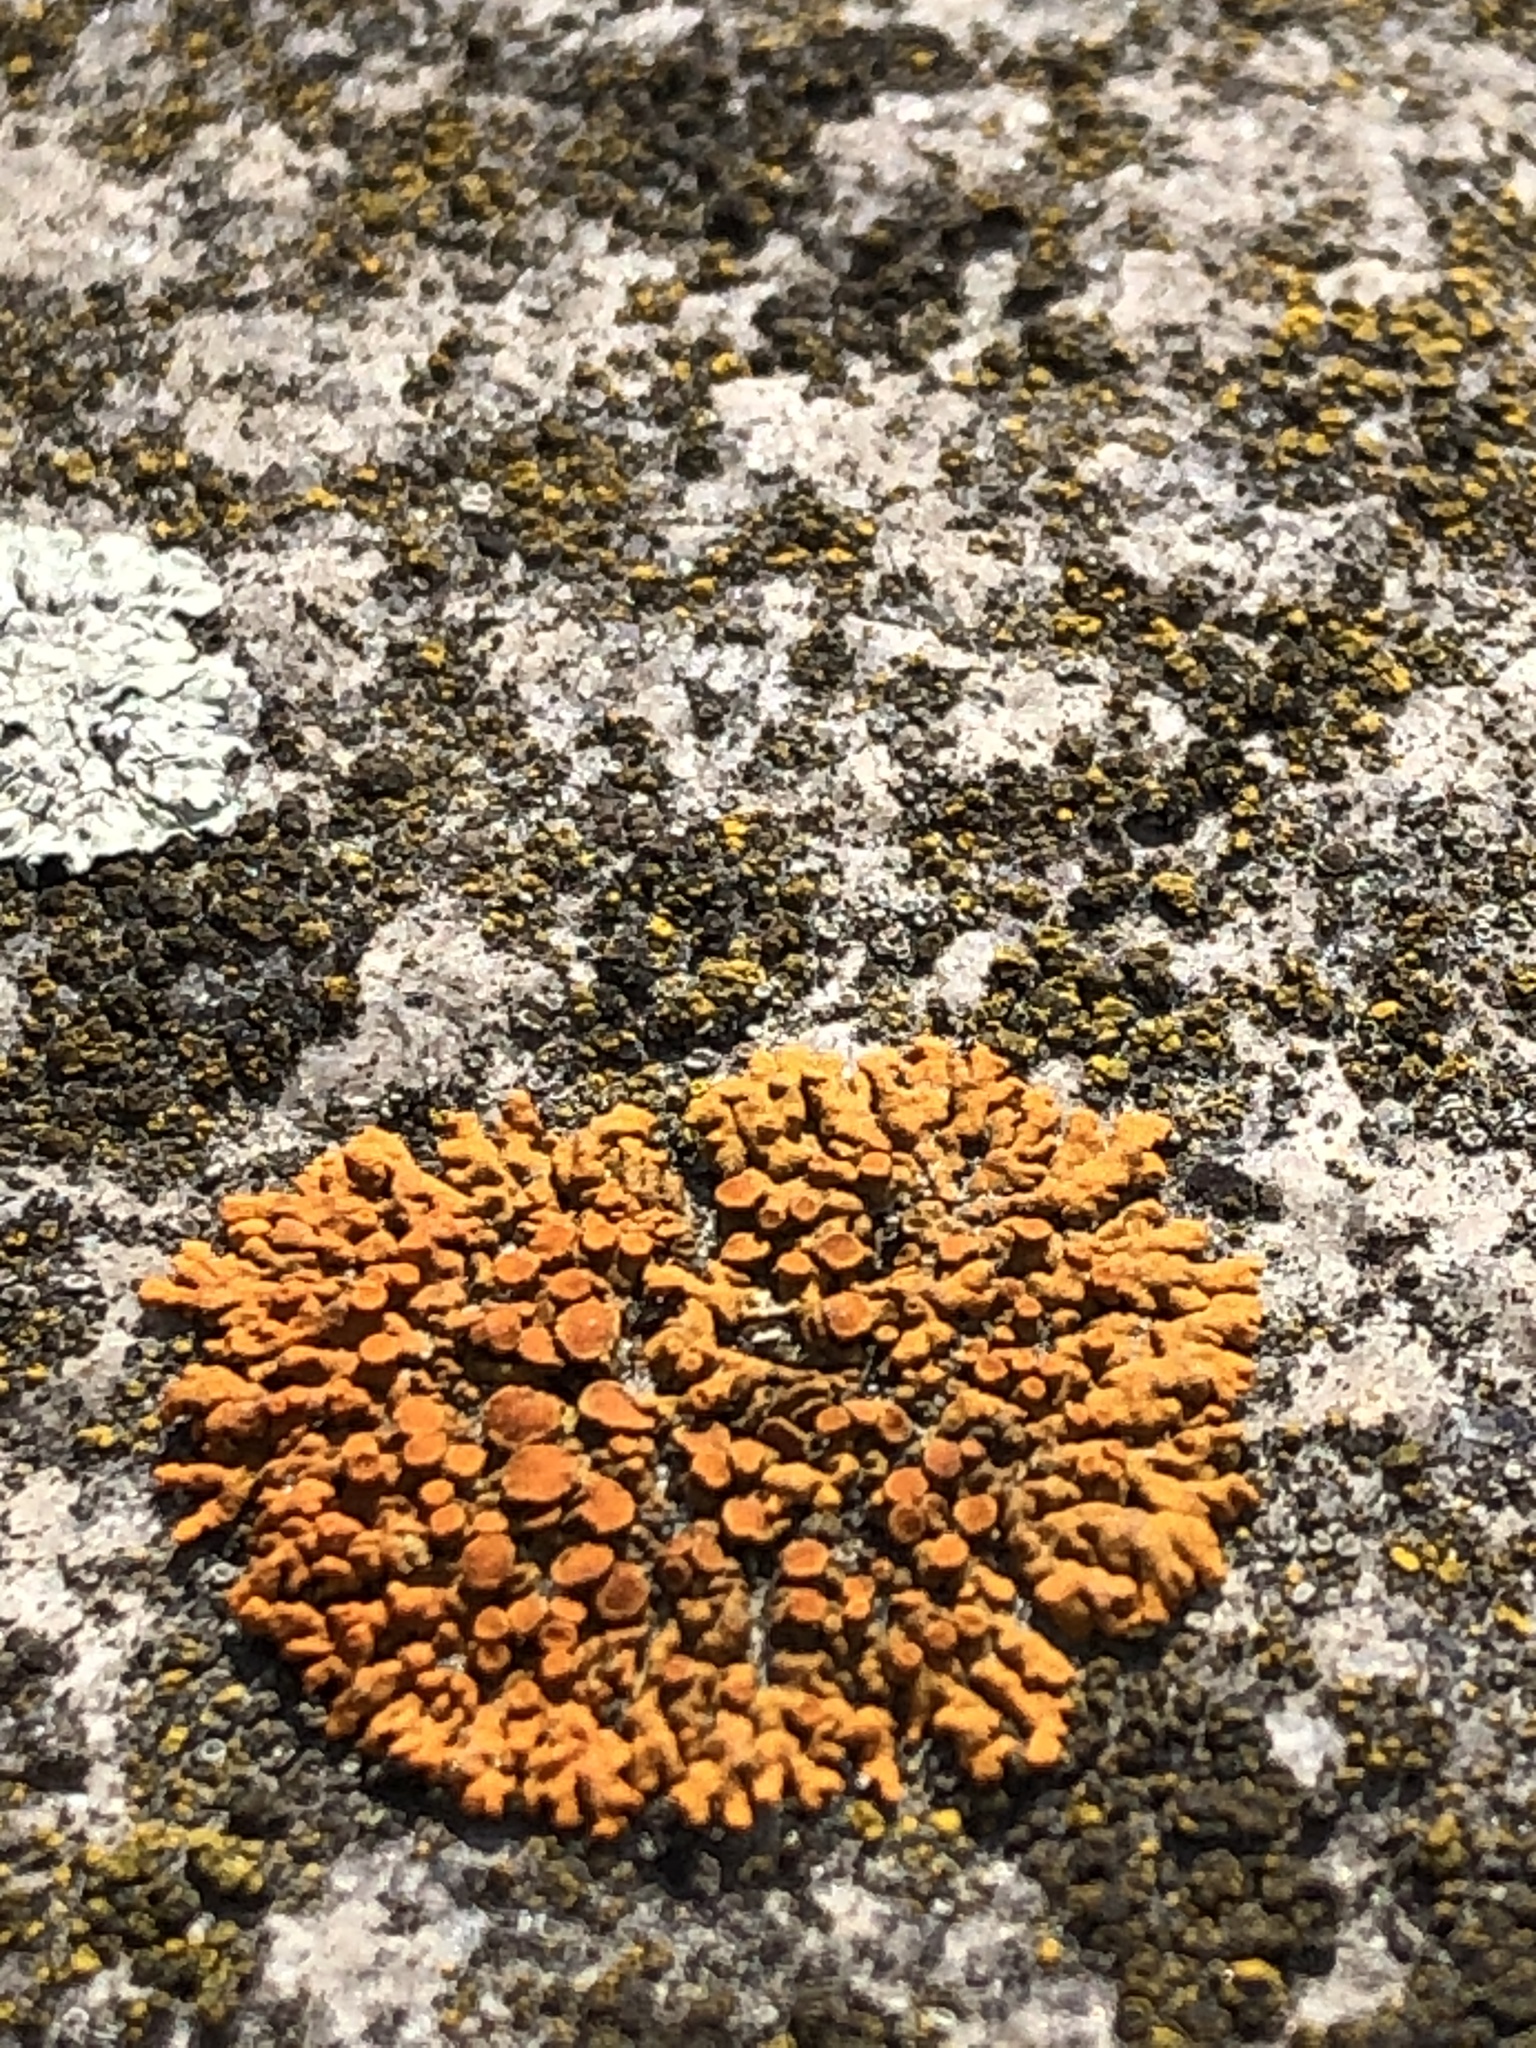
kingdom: Fungi
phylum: Ascomycota
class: Lecanoromycetes
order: Teloschistales
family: Teloschistaceae
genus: Xanthoria
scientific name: Xanthoria elegans
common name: Elegant sunburst lichen
